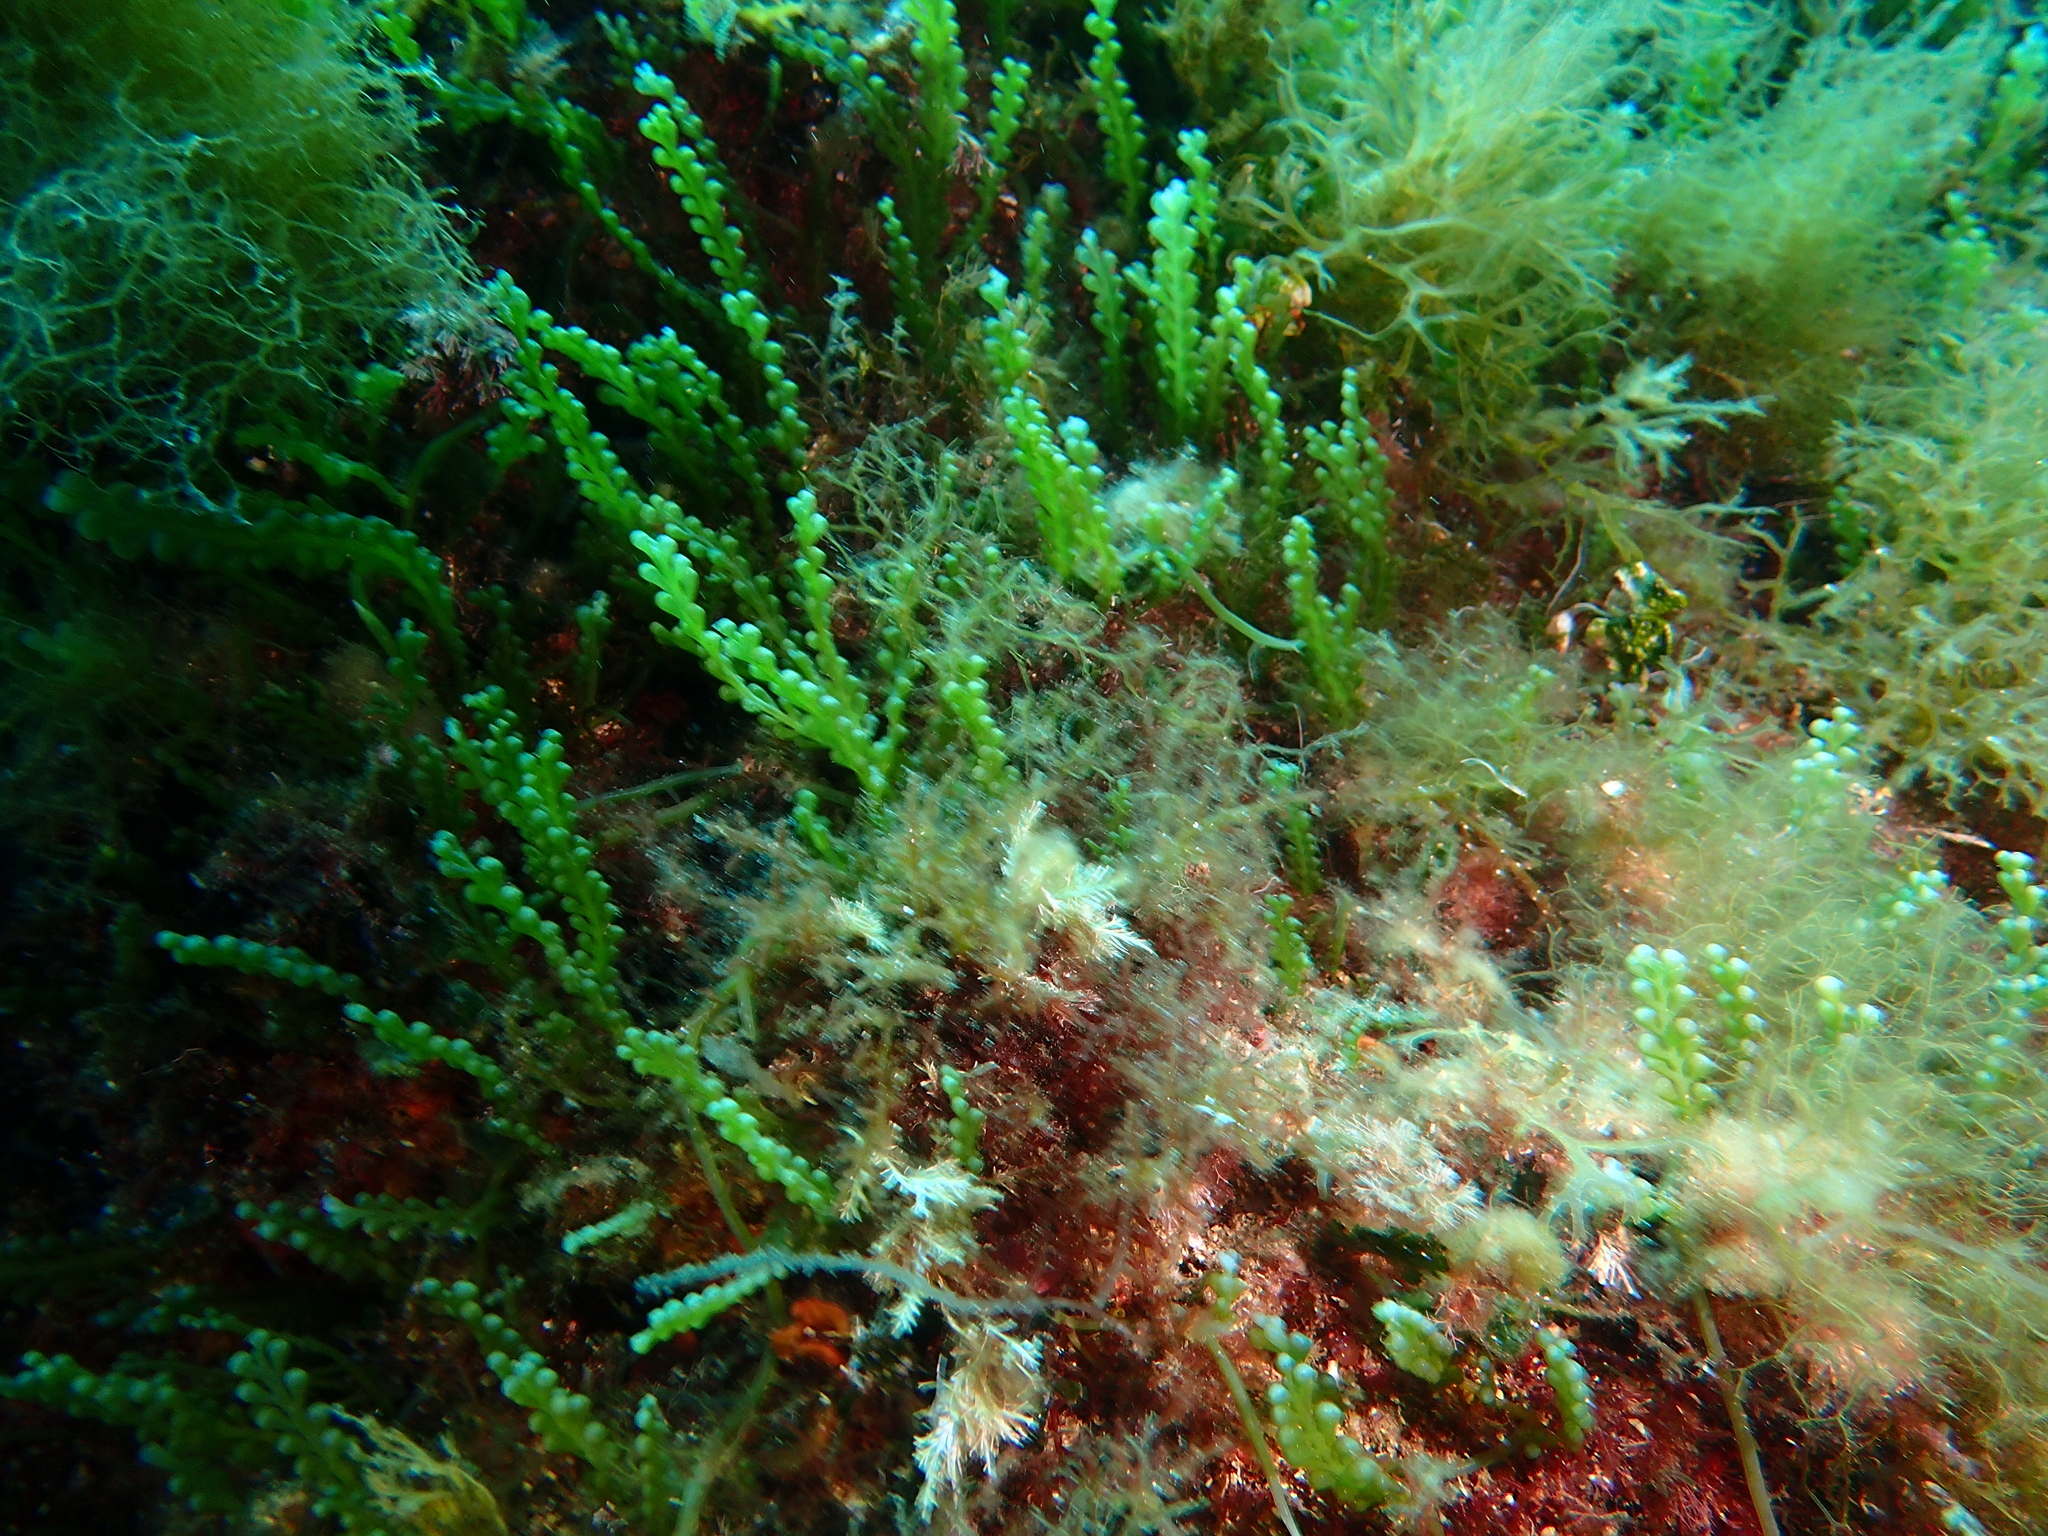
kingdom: Plantae
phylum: Chlorophyta
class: Ulvophyceae
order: Bryopsidales
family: Caulerpaceae
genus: Caulerpa
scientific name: Caulerpa cylindracea
